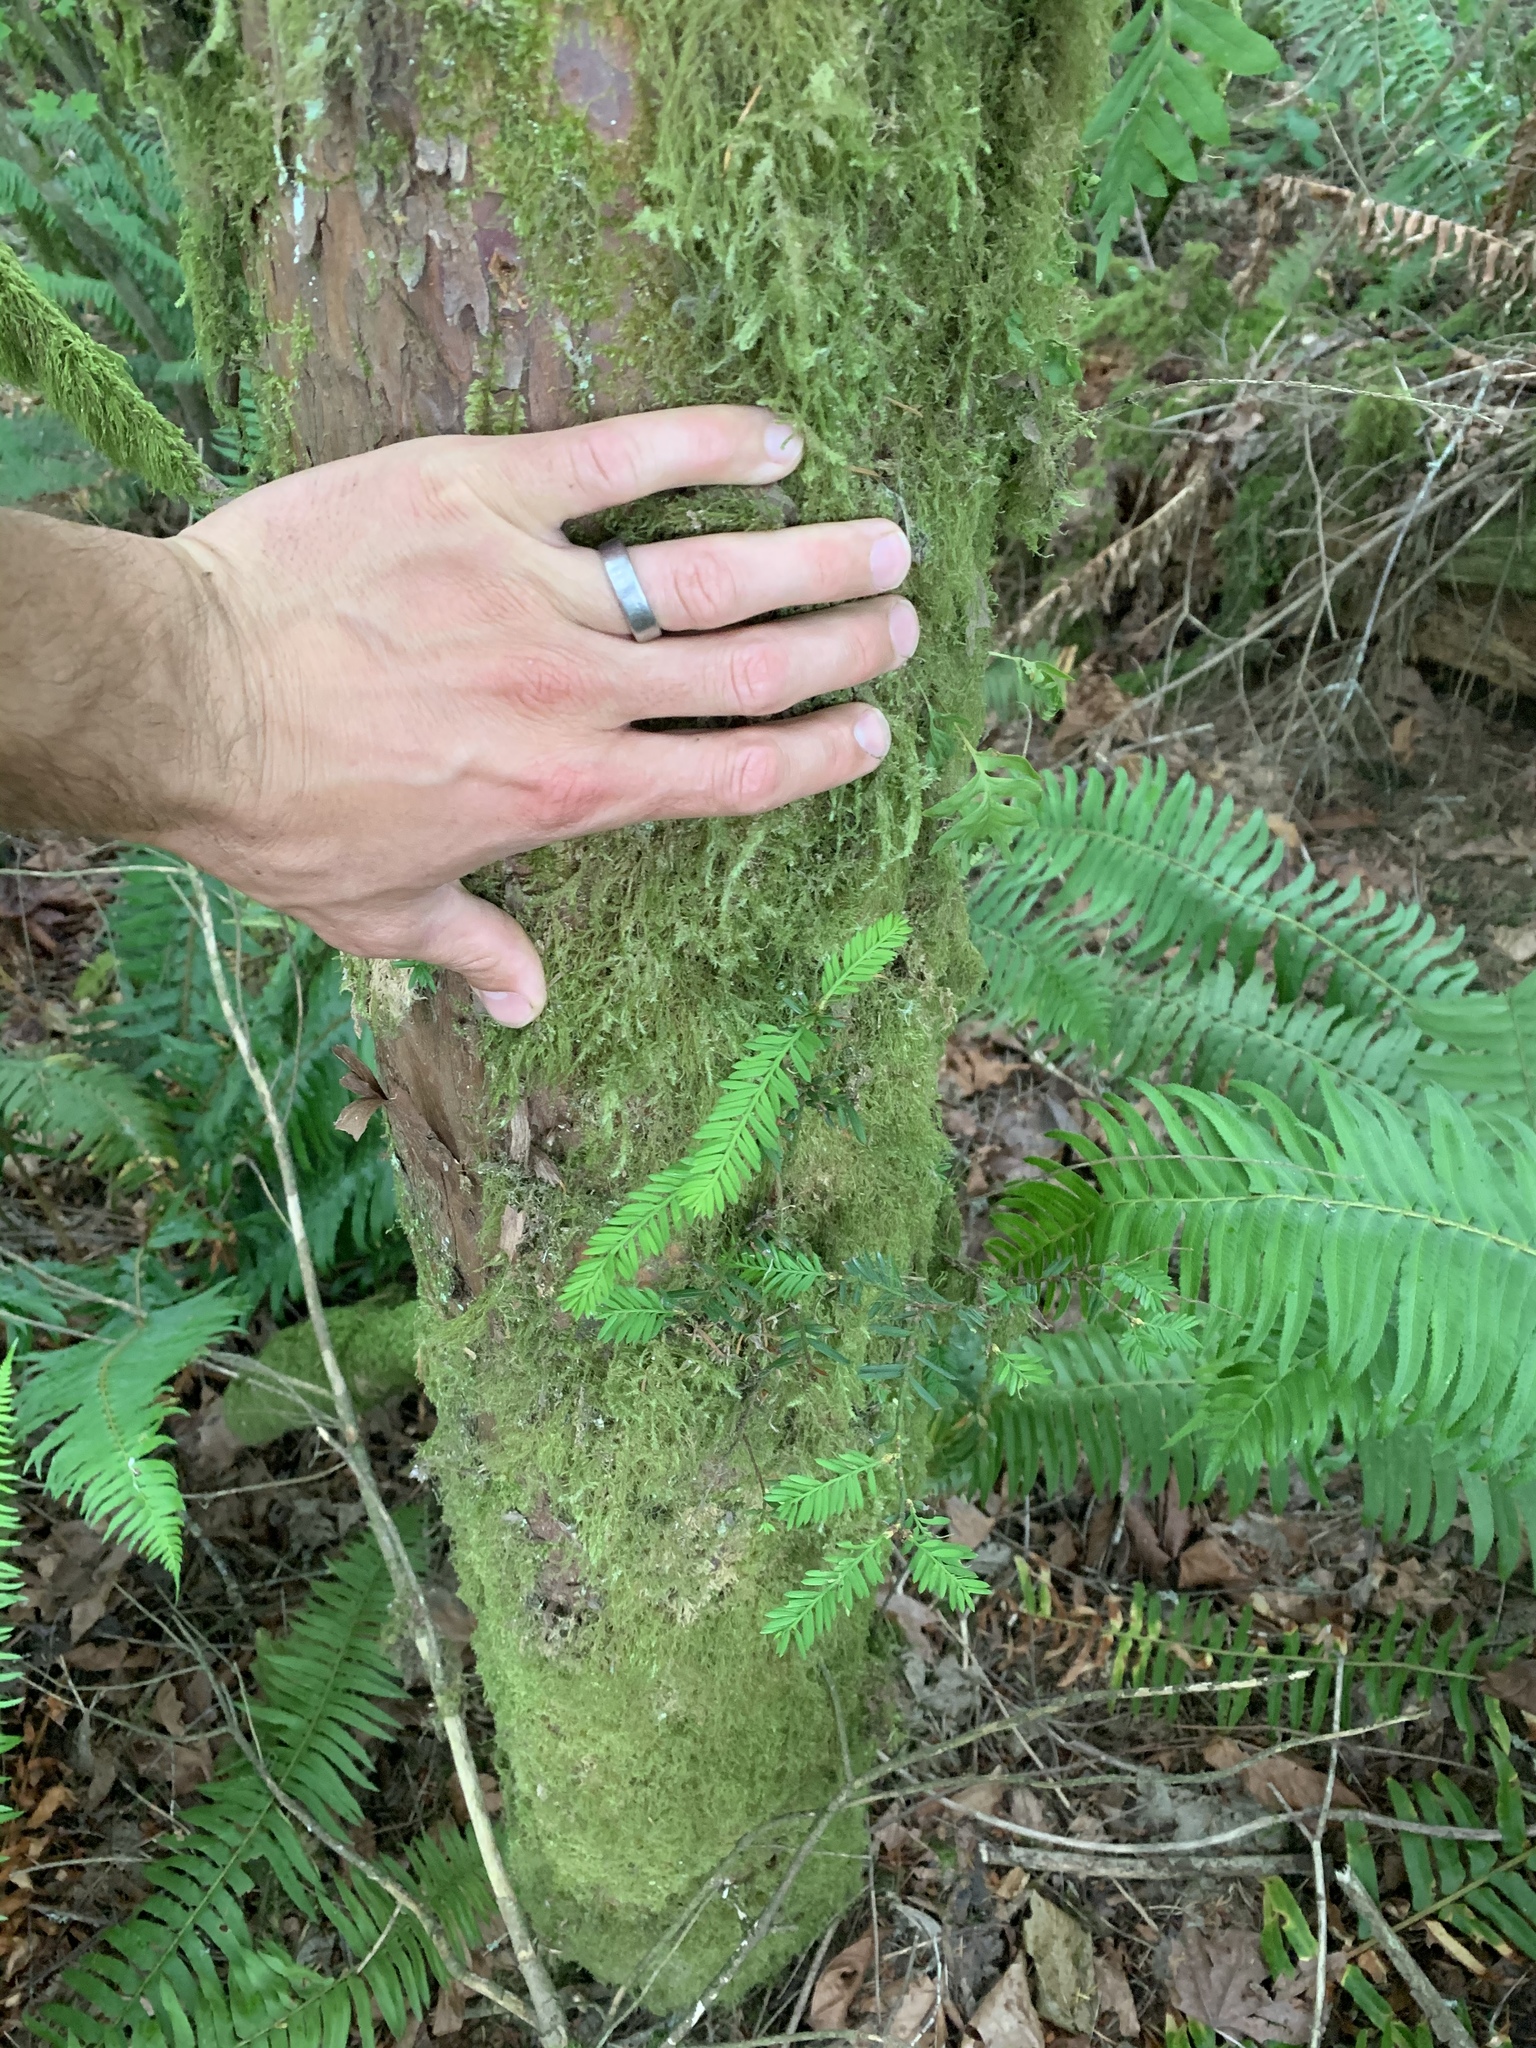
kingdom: Plantae
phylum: Tracheophyta
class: Pinopsida
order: Pinales
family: Taxaceae
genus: Taxus
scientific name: Taxus brevifolia
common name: Pacific yew
